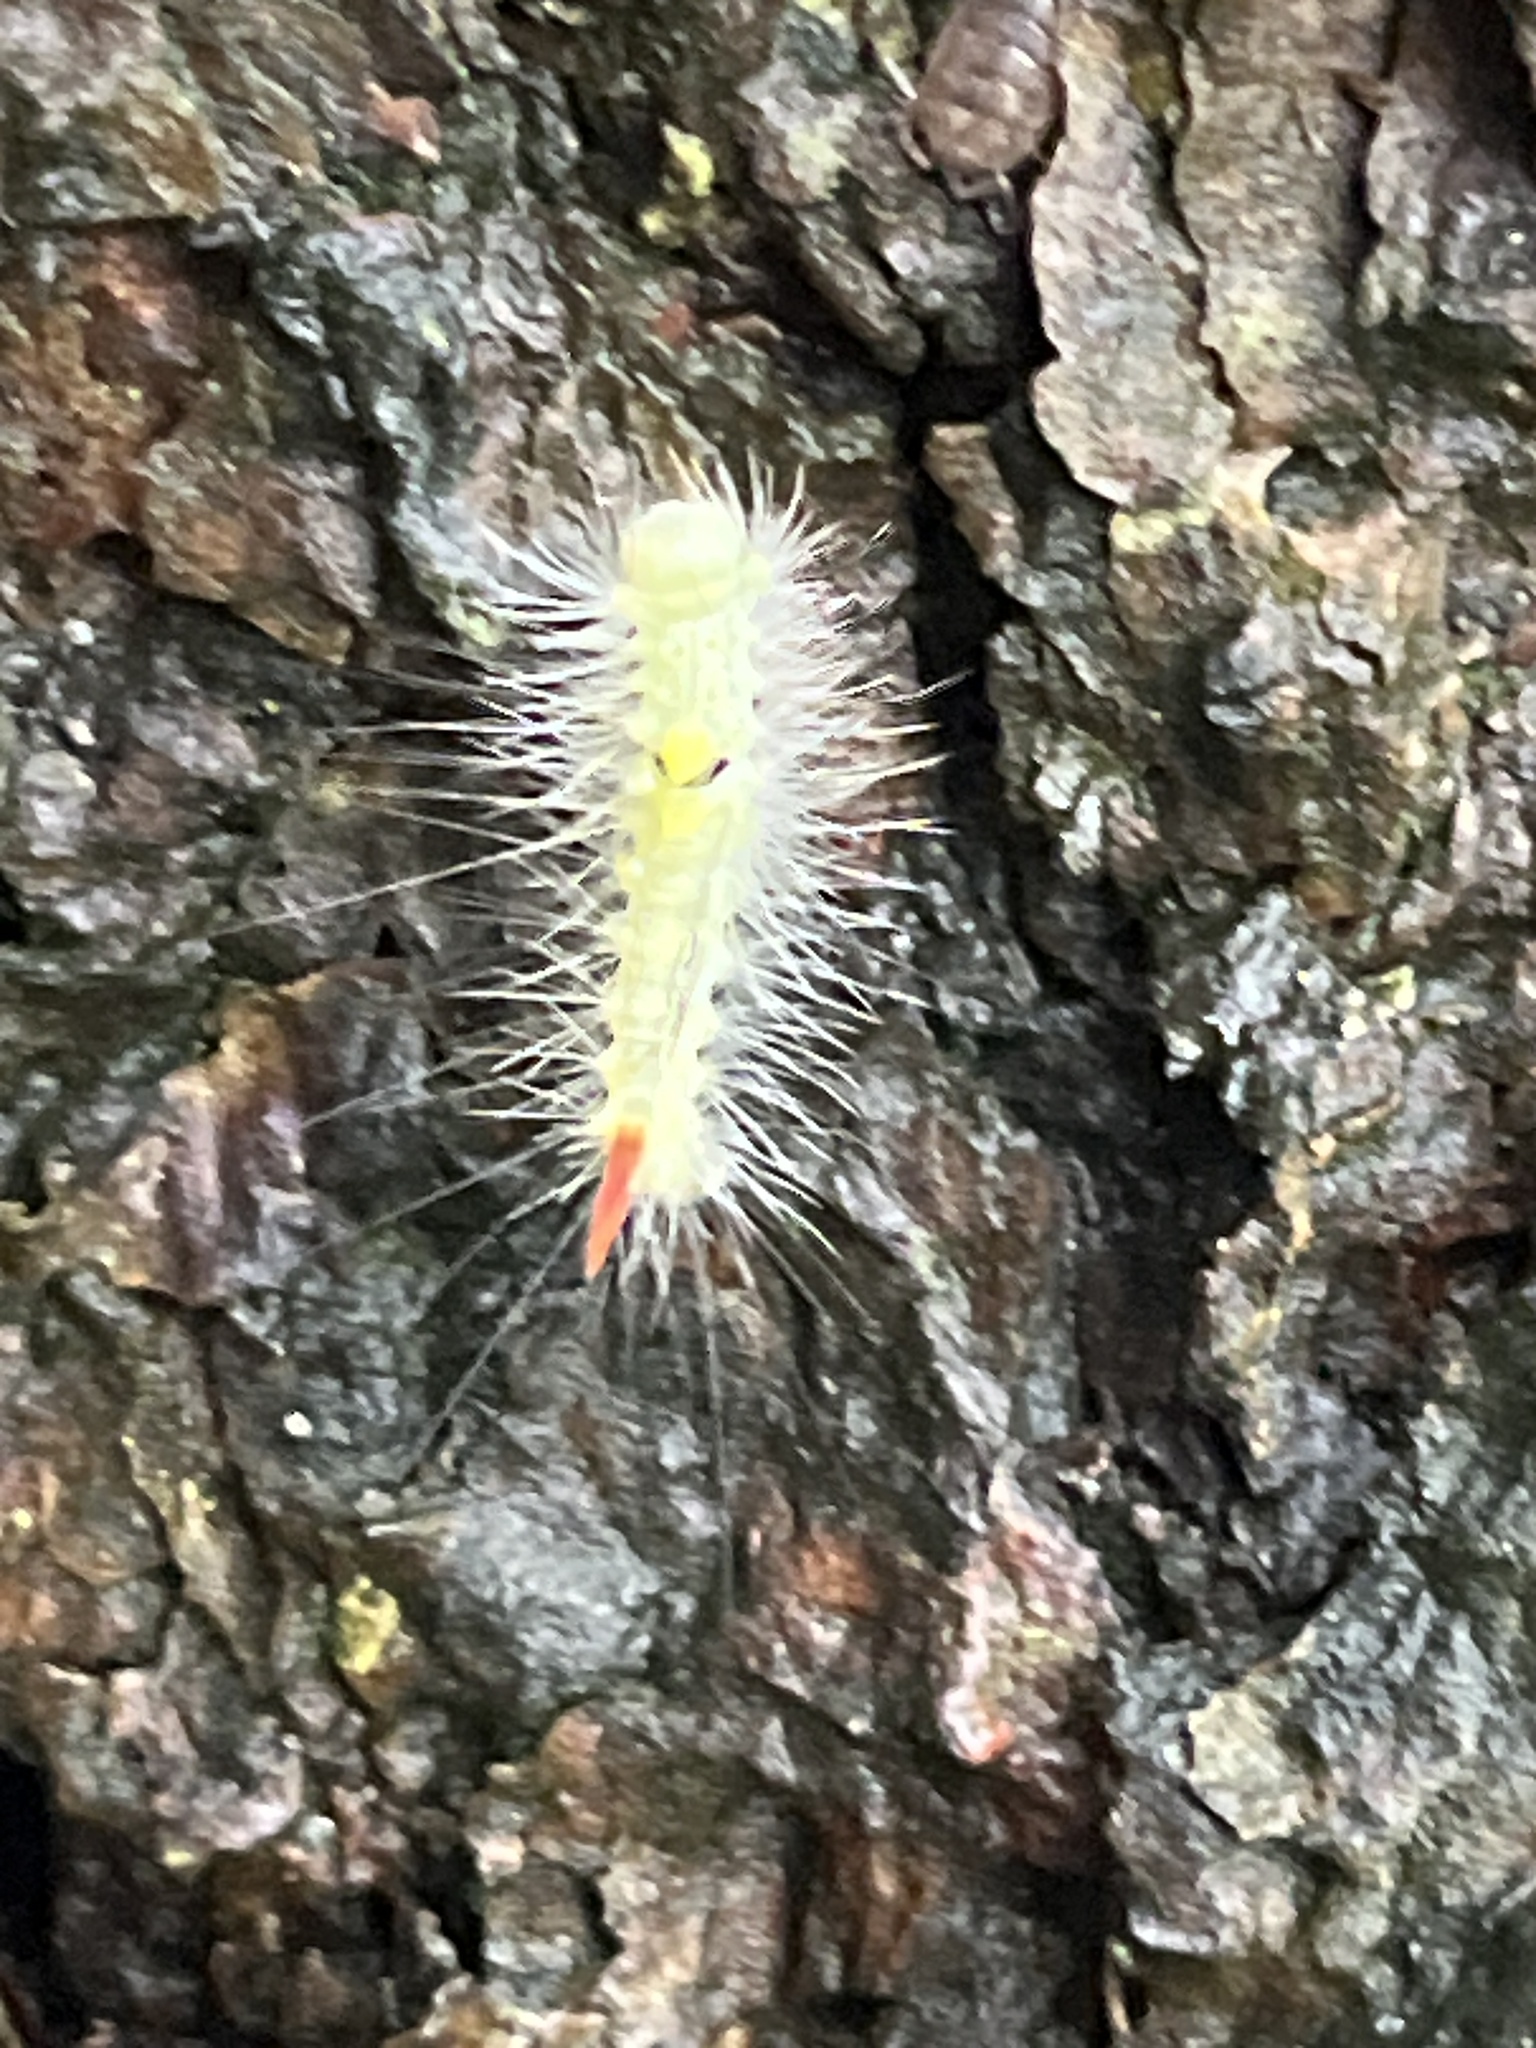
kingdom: Animalia
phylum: Arthropoda
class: Insecta
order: Lepidoptera
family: Erebidae
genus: Calliteara
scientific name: Calliteara pudibunda
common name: Pale tussock
